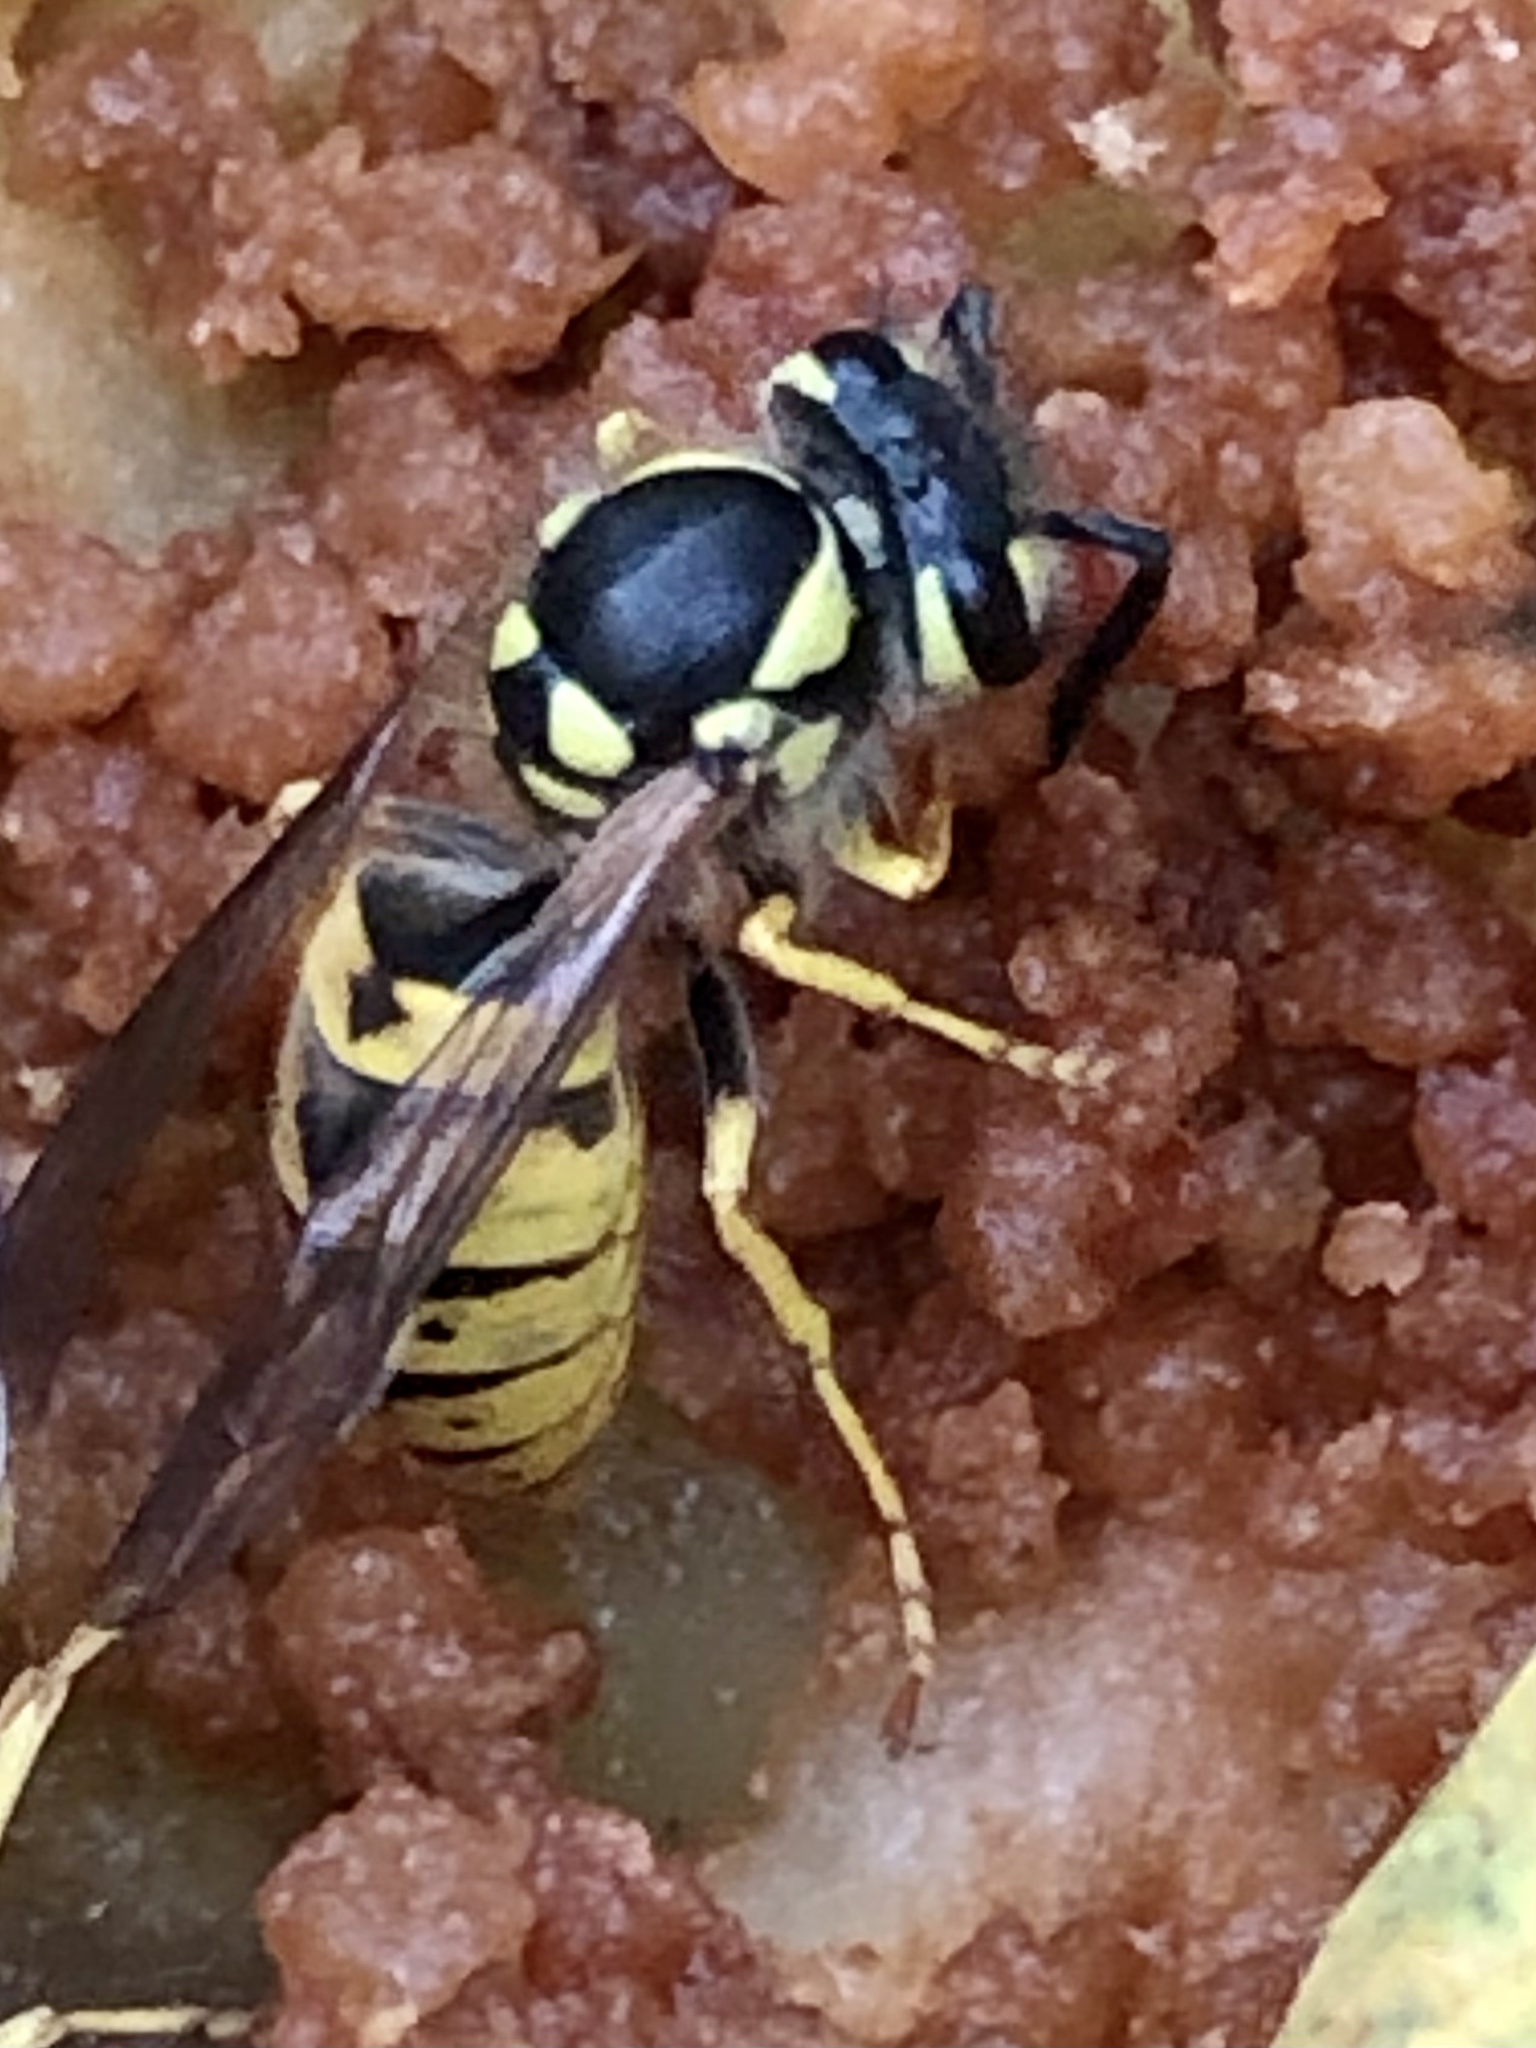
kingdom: Animalia
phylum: Arthropoda
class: Insecta
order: Hymenoptera
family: Vespidae
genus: Vespula
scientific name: Vespula germanica
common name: German wasp
